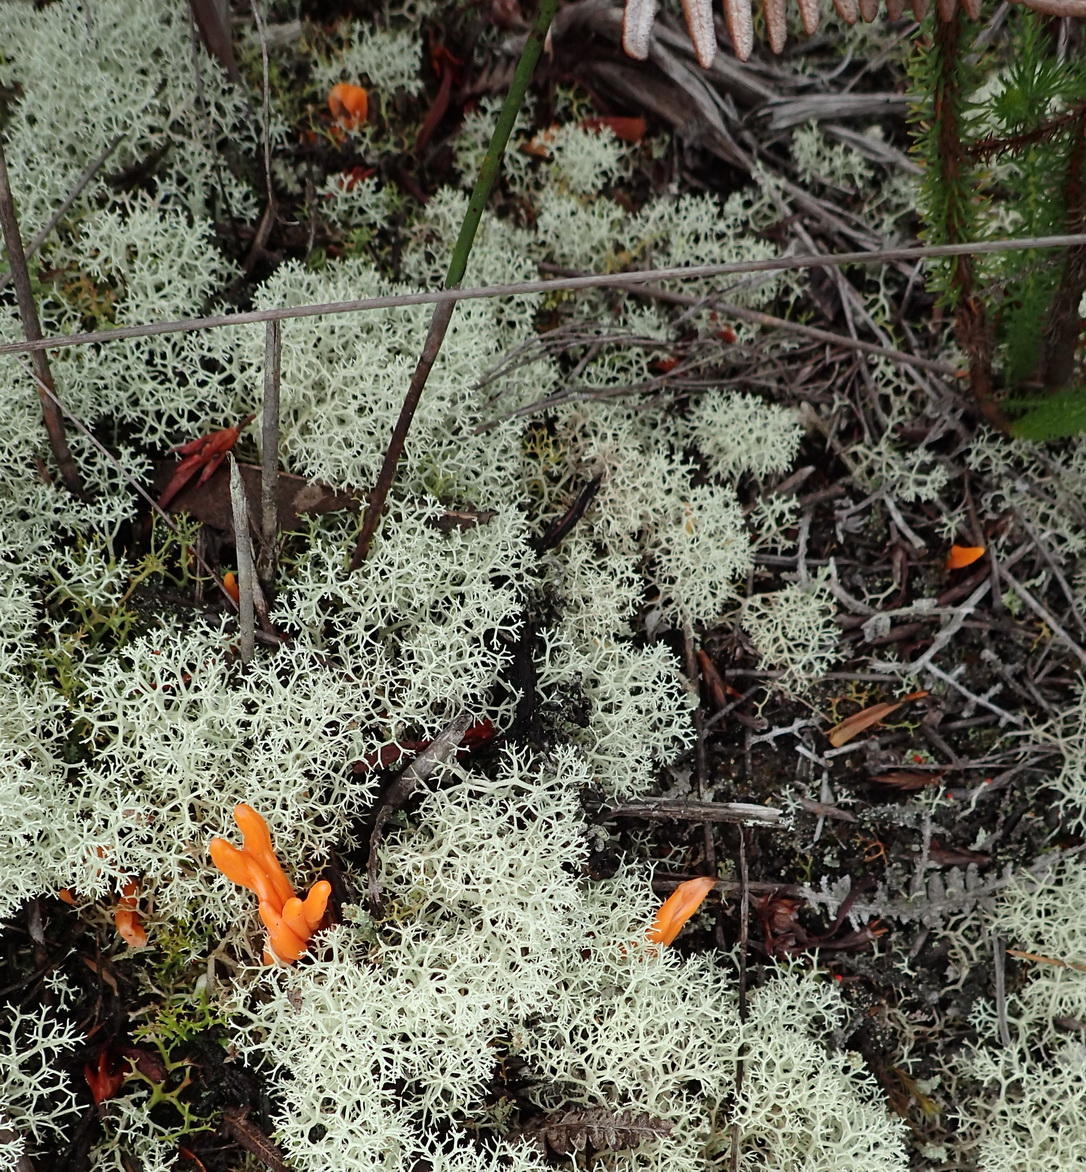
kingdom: Fungi
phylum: Basidiomycota
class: Agaricomycetes
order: Agaricales
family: Clavariaceae
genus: Clavulinopsis
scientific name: Clavulinopsis luteoalba
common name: Apricot club
